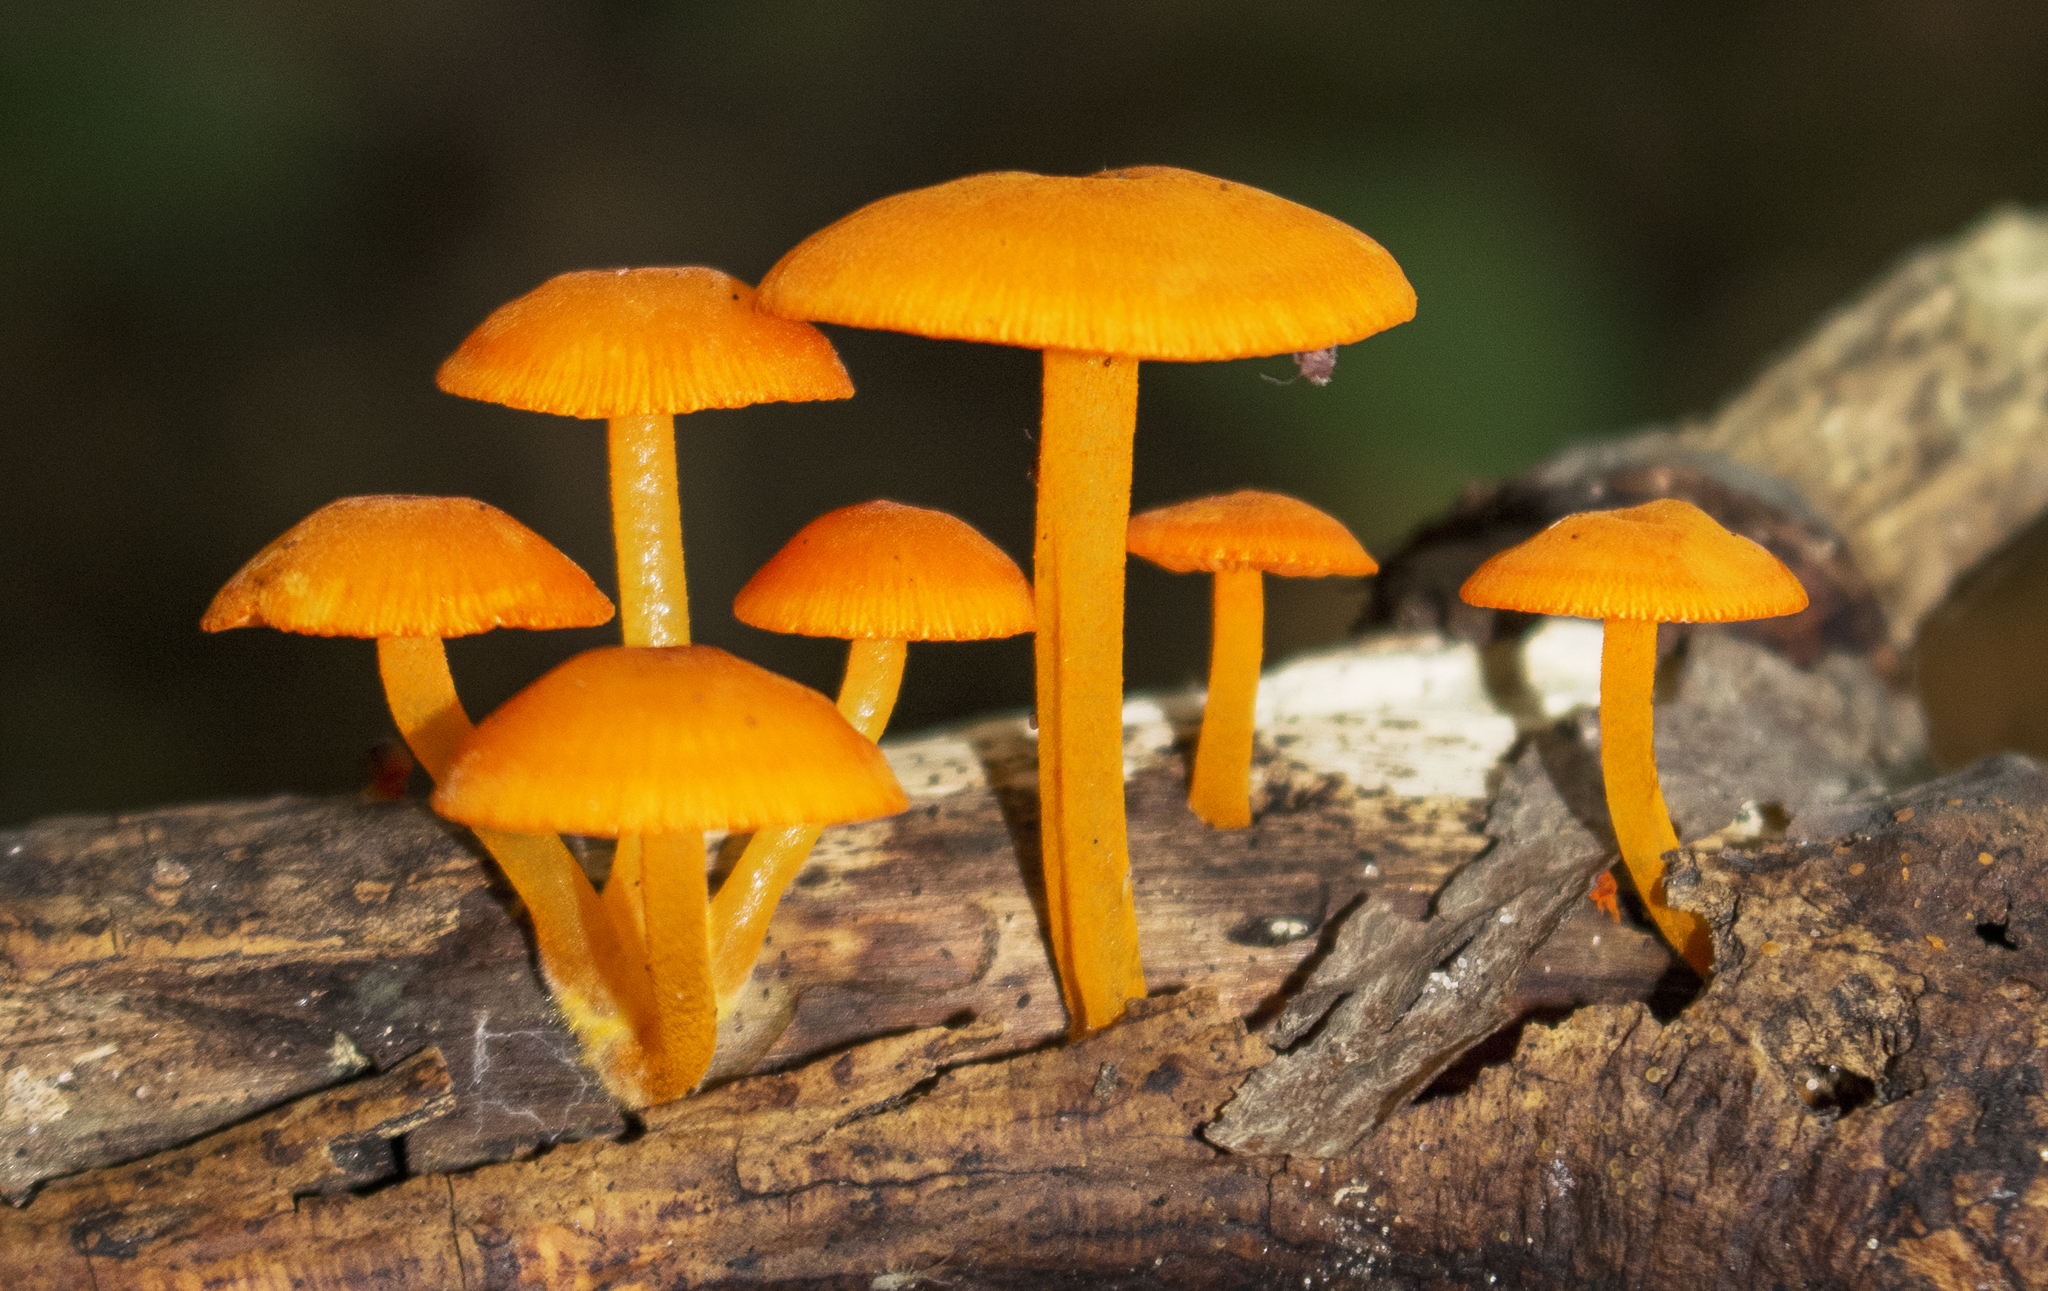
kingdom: Fungi
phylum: Basidiomycota
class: Agaricomycetes
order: Agaricales
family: Mycenaceae
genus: Mycena
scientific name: Mycena leaiana
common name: Orange mycena
